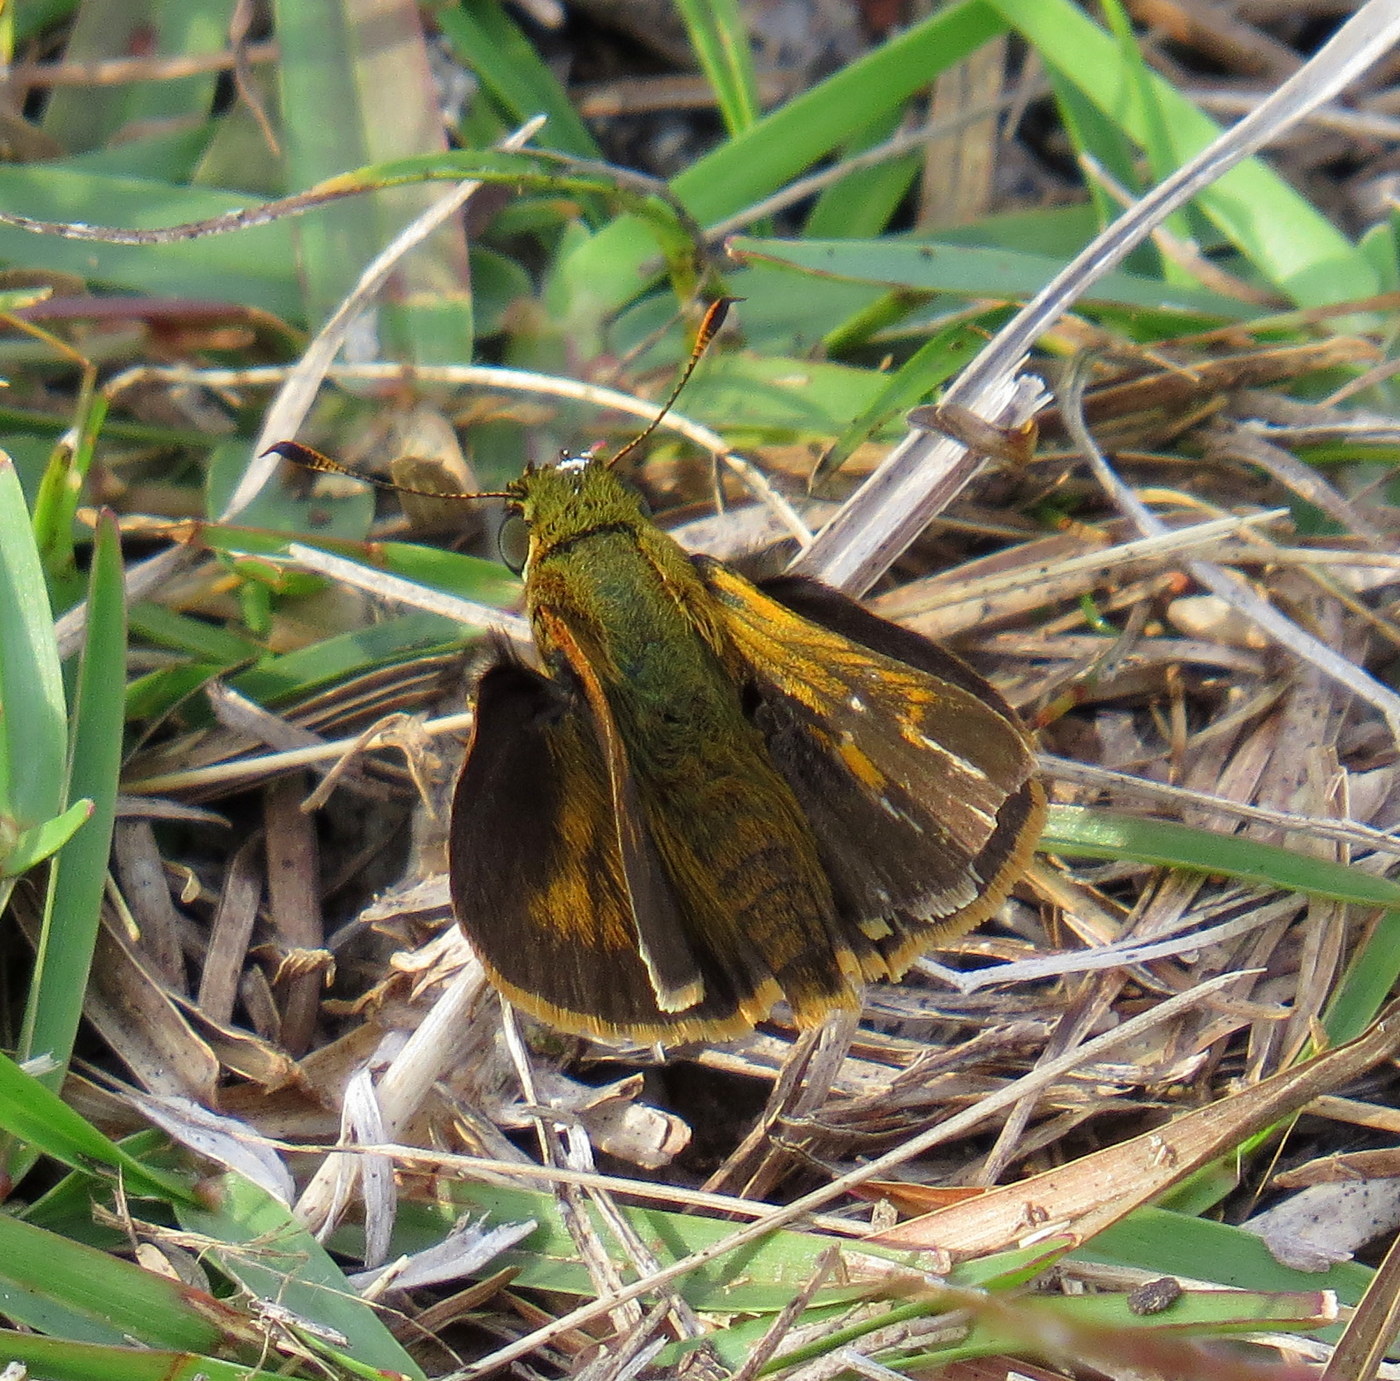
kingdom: Animalia
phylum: Arthropoda
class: Insecta
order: Lepidoptera
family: Hesperiidae
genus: Polites
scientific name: Polites otho
